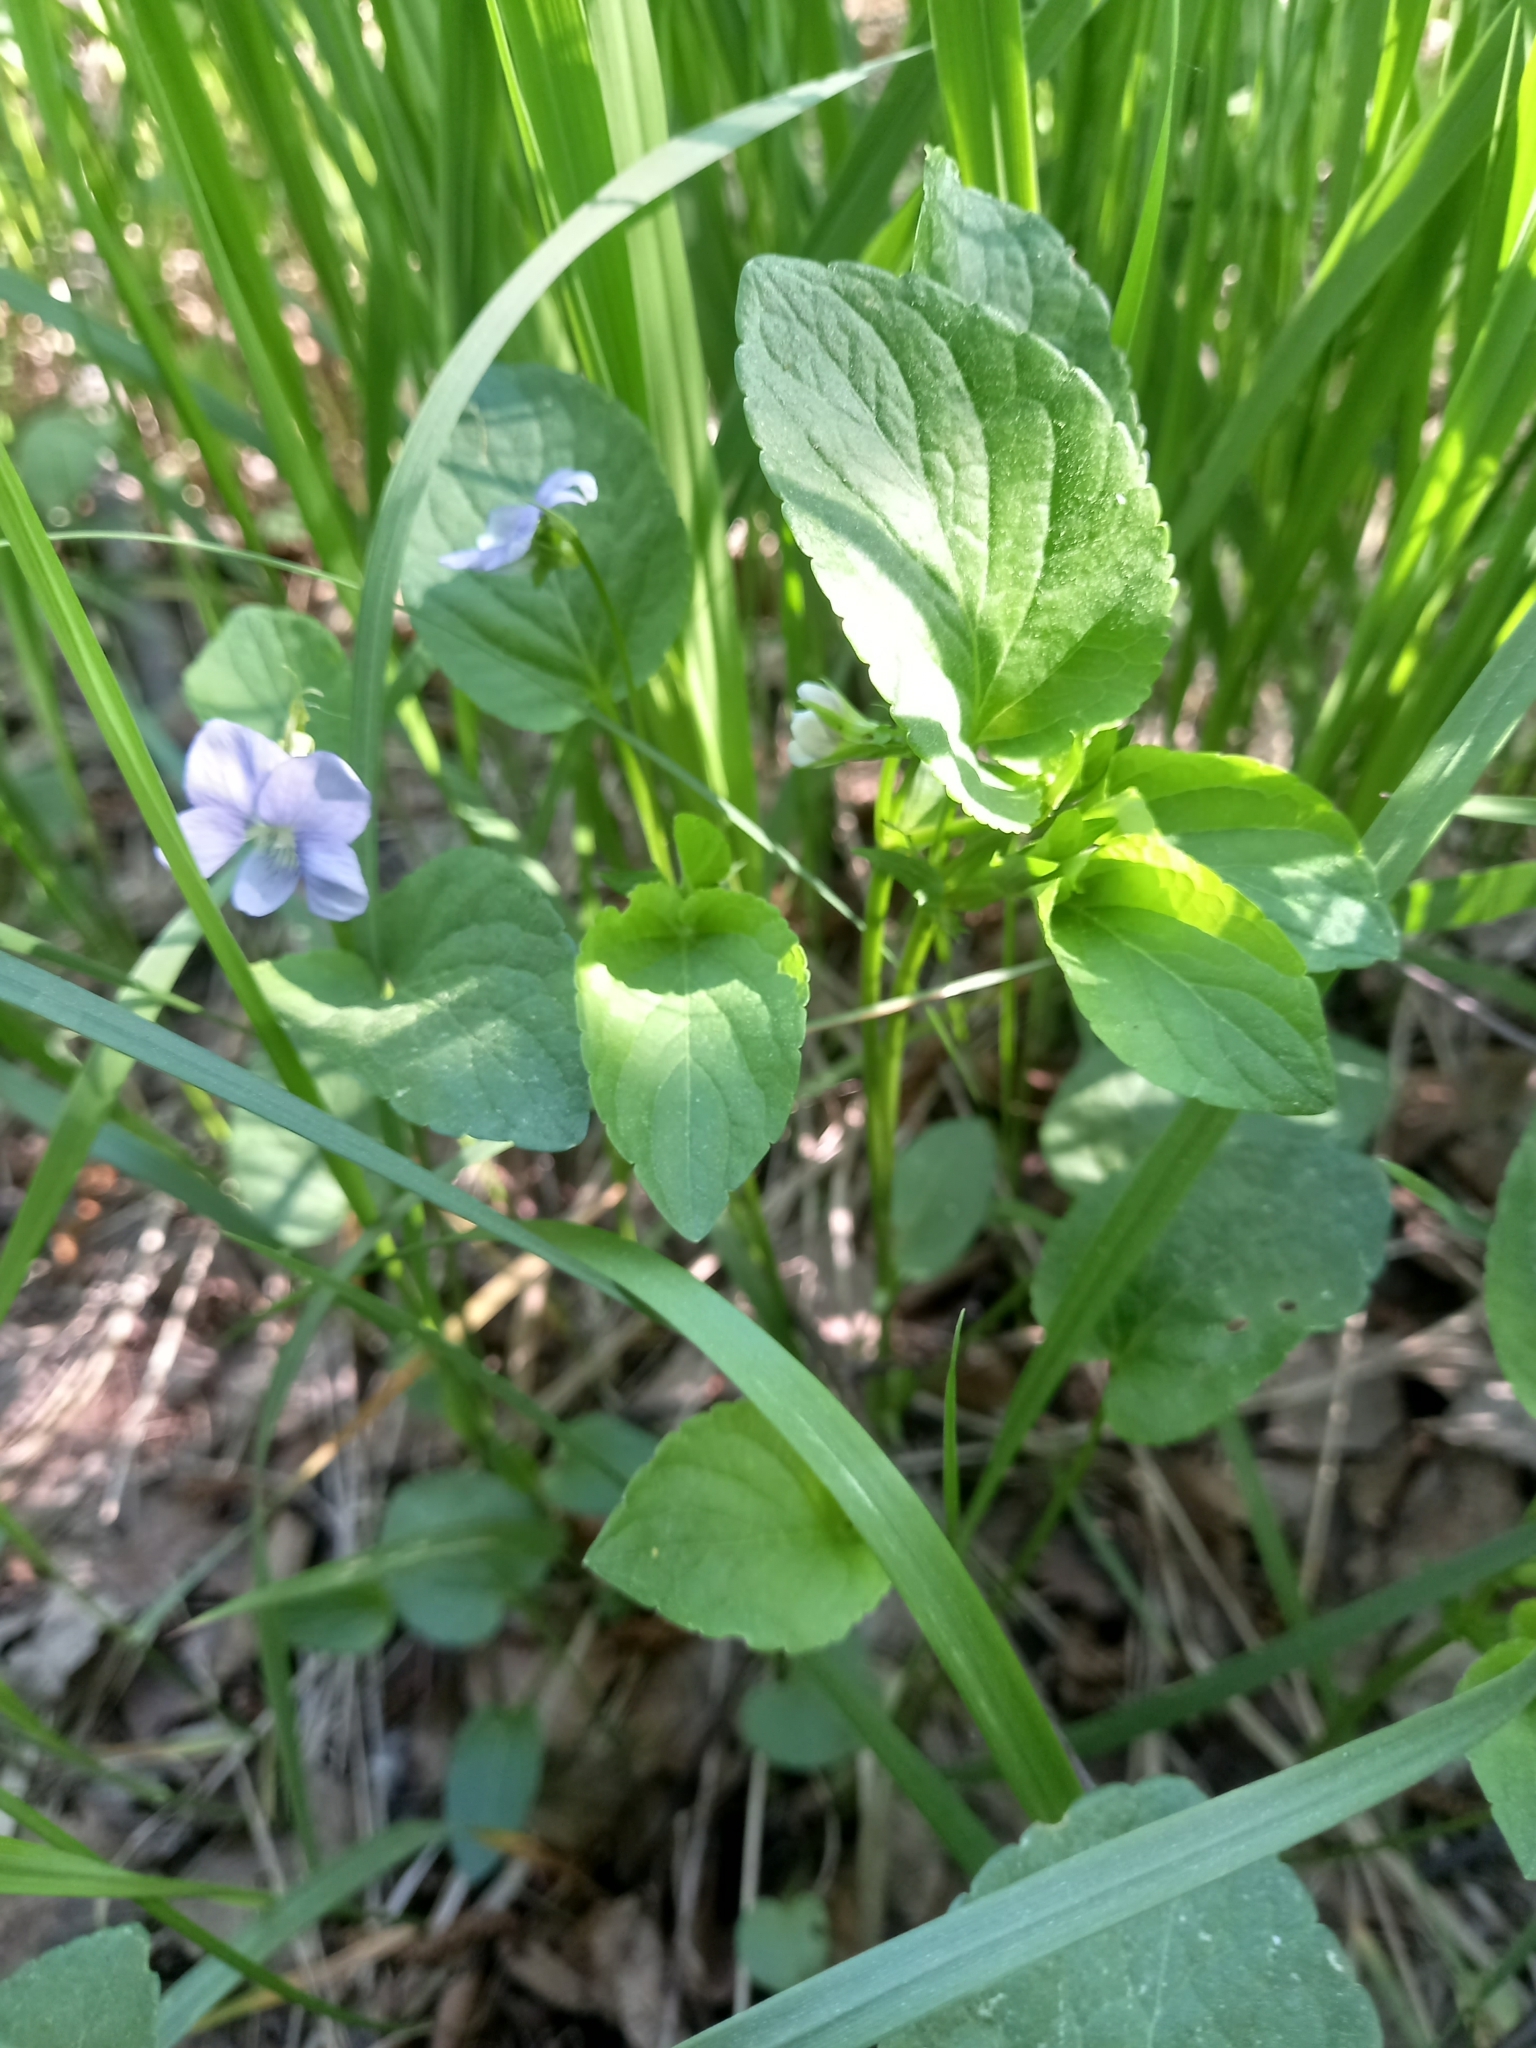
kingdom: Plantae
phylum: Tracheophyta
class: Magnoliopsida
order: Malpighiales
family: Violaceae
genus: Viola
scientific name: Viola canina
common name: Heath dog-violet
